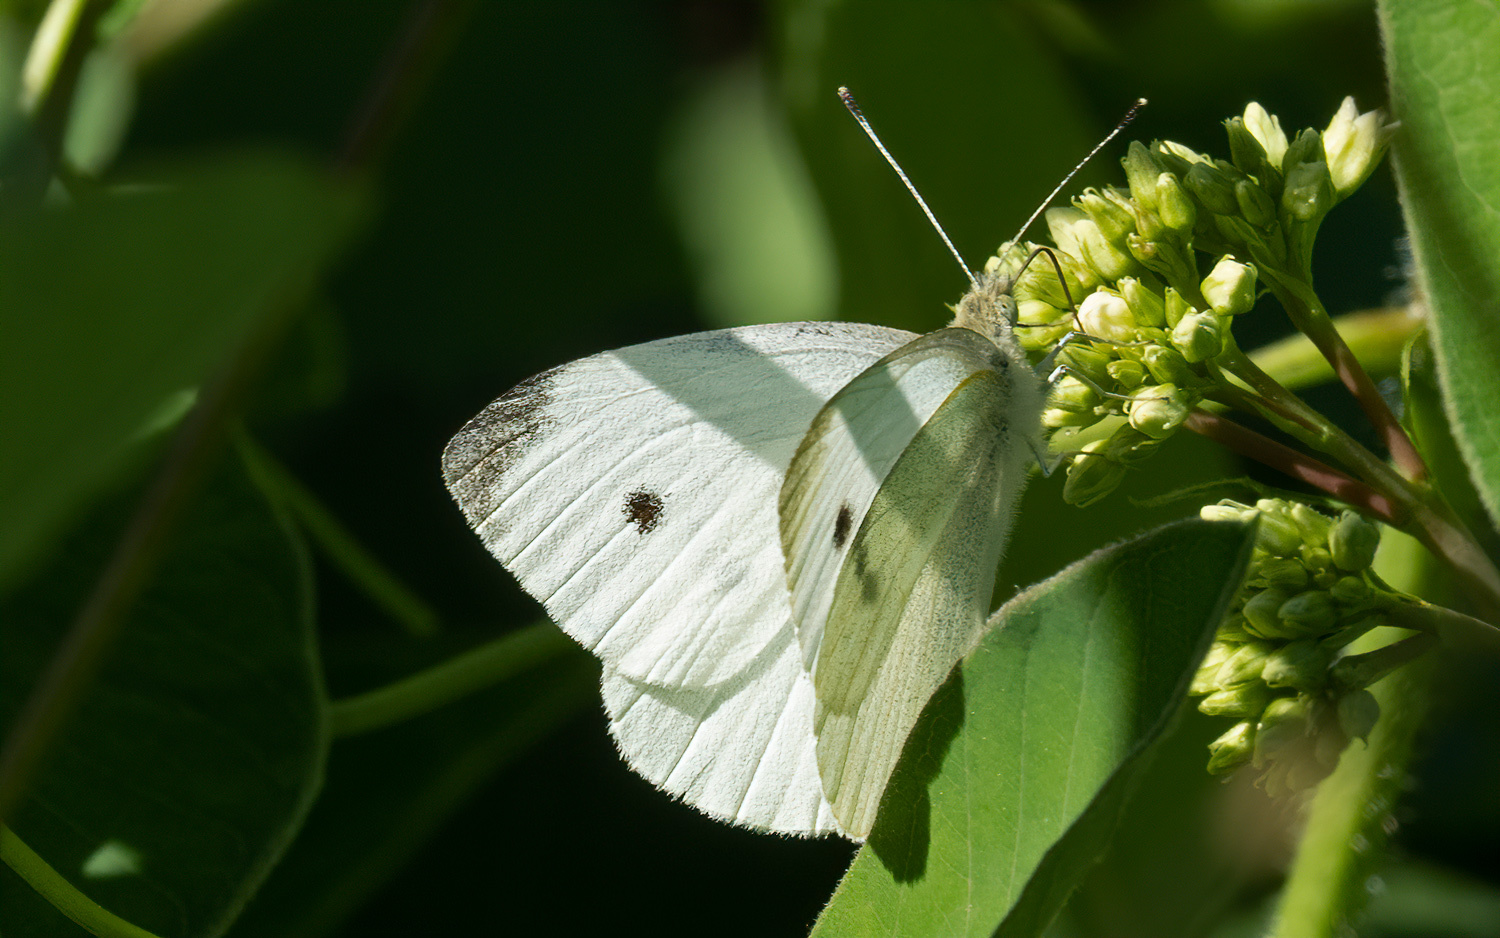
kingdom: Animalia
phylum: Arthropoda
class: Insecta
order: Lepidoptera
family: Pieridae
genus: Pieris
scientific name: Pieris rapae
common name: Small white
